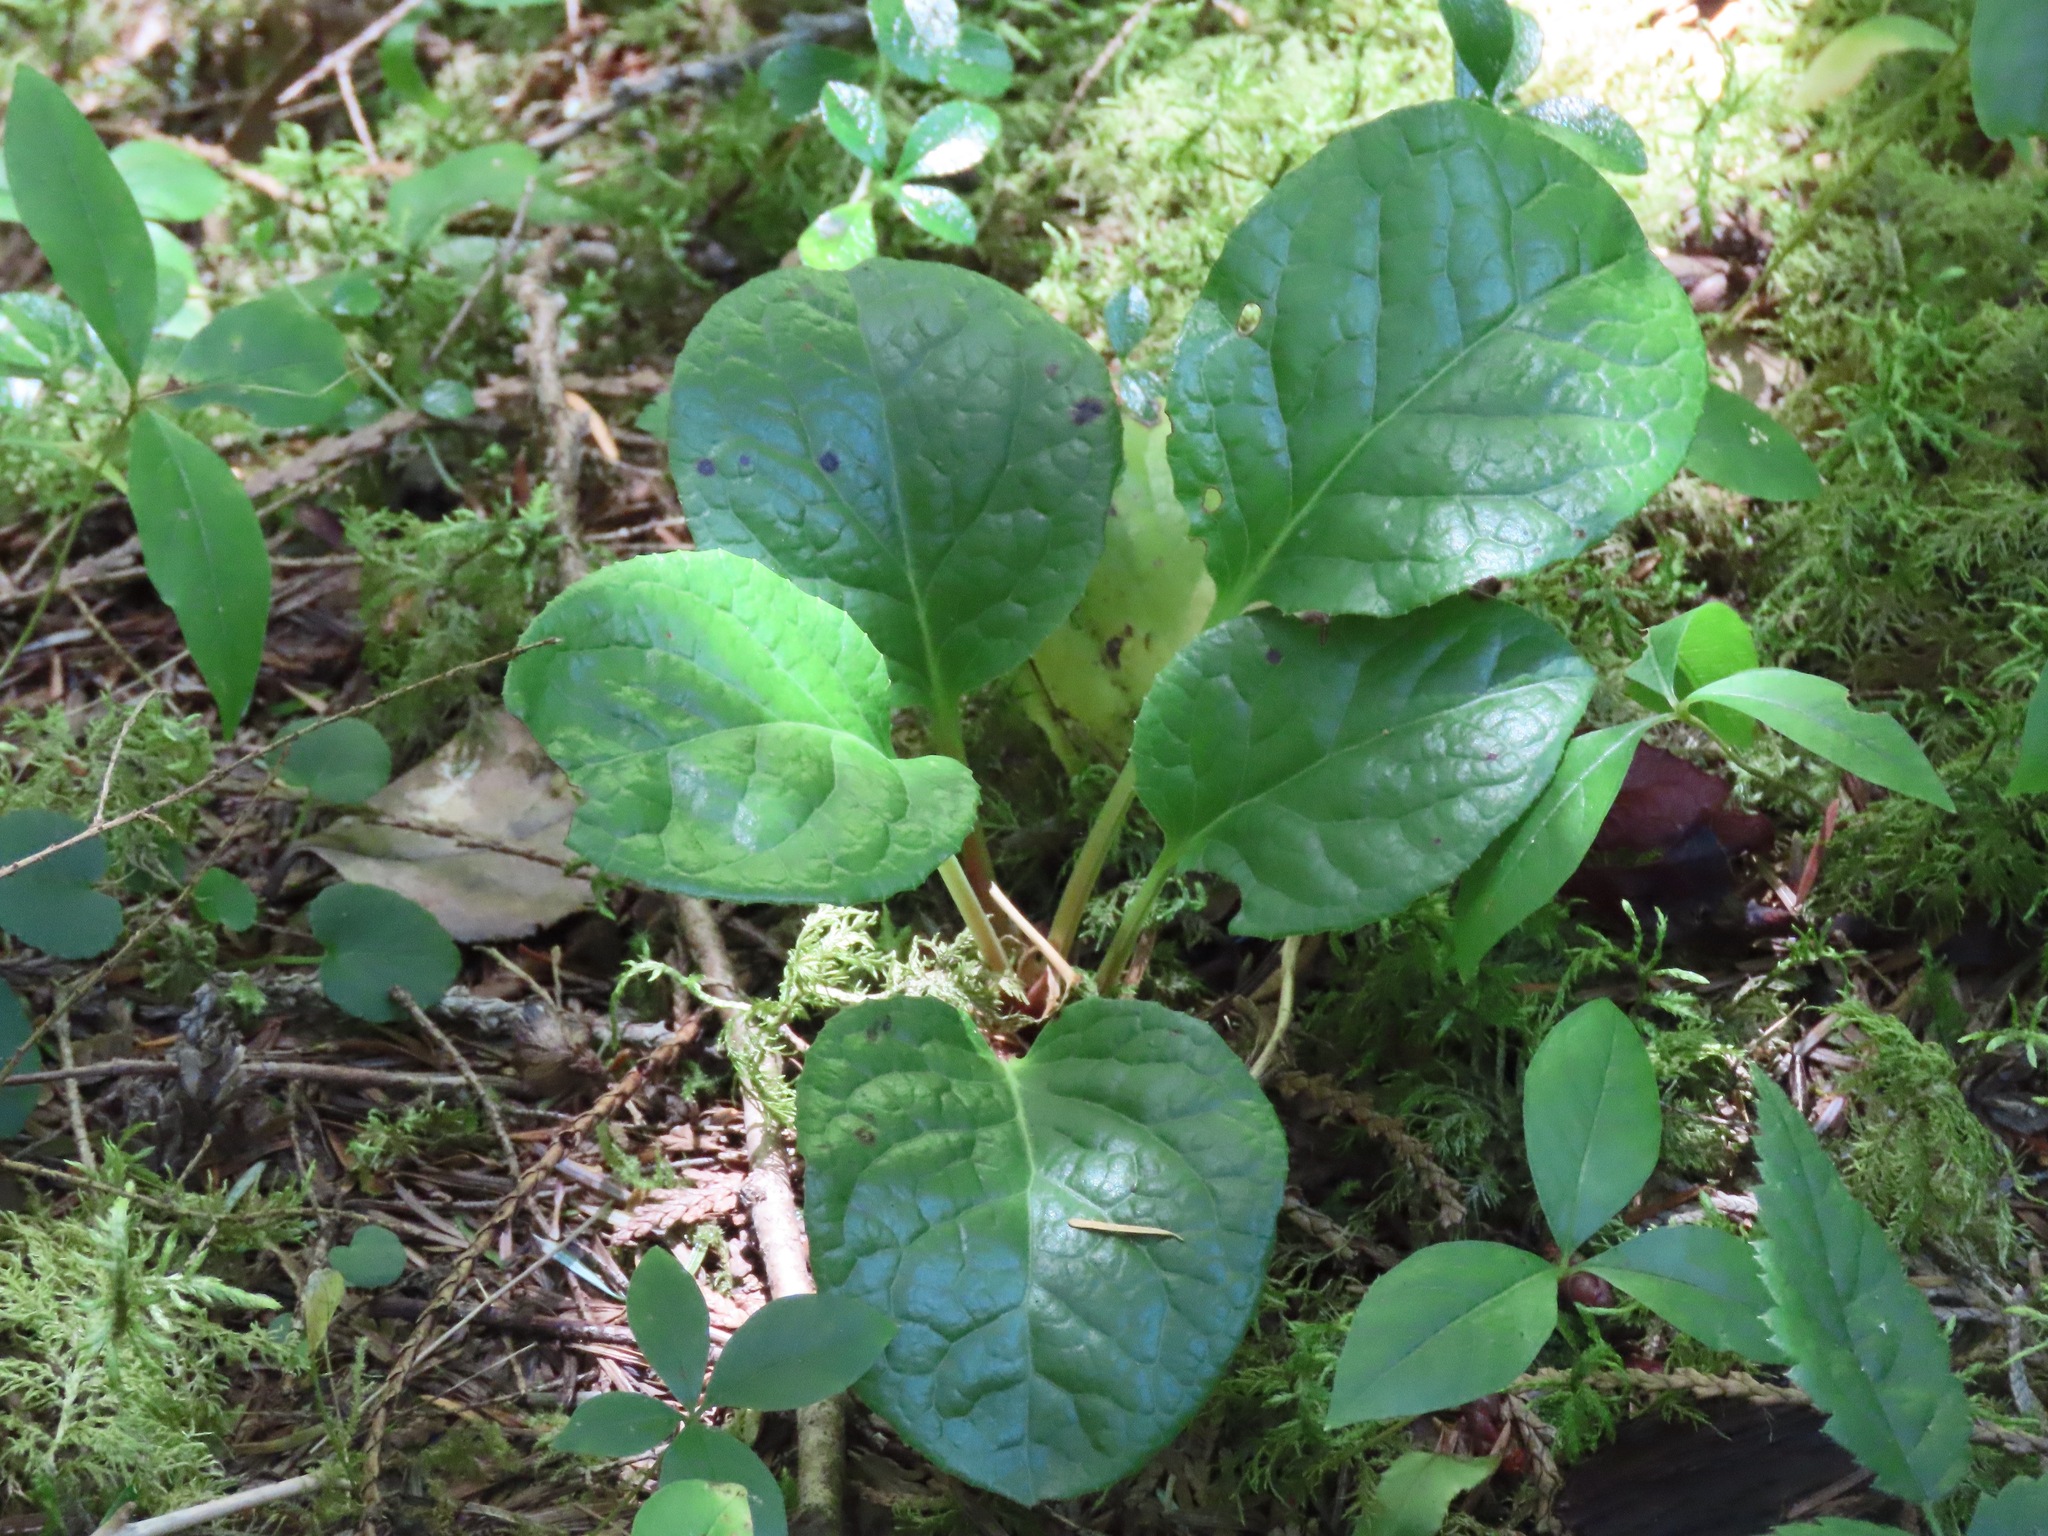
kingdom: Plantae
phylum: Tracheophyta
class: Magnoliopsida
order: Ericales
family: Ericaceae
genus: Pyrola
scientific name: Pyrola asarifolia
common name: Bog wintergreen
